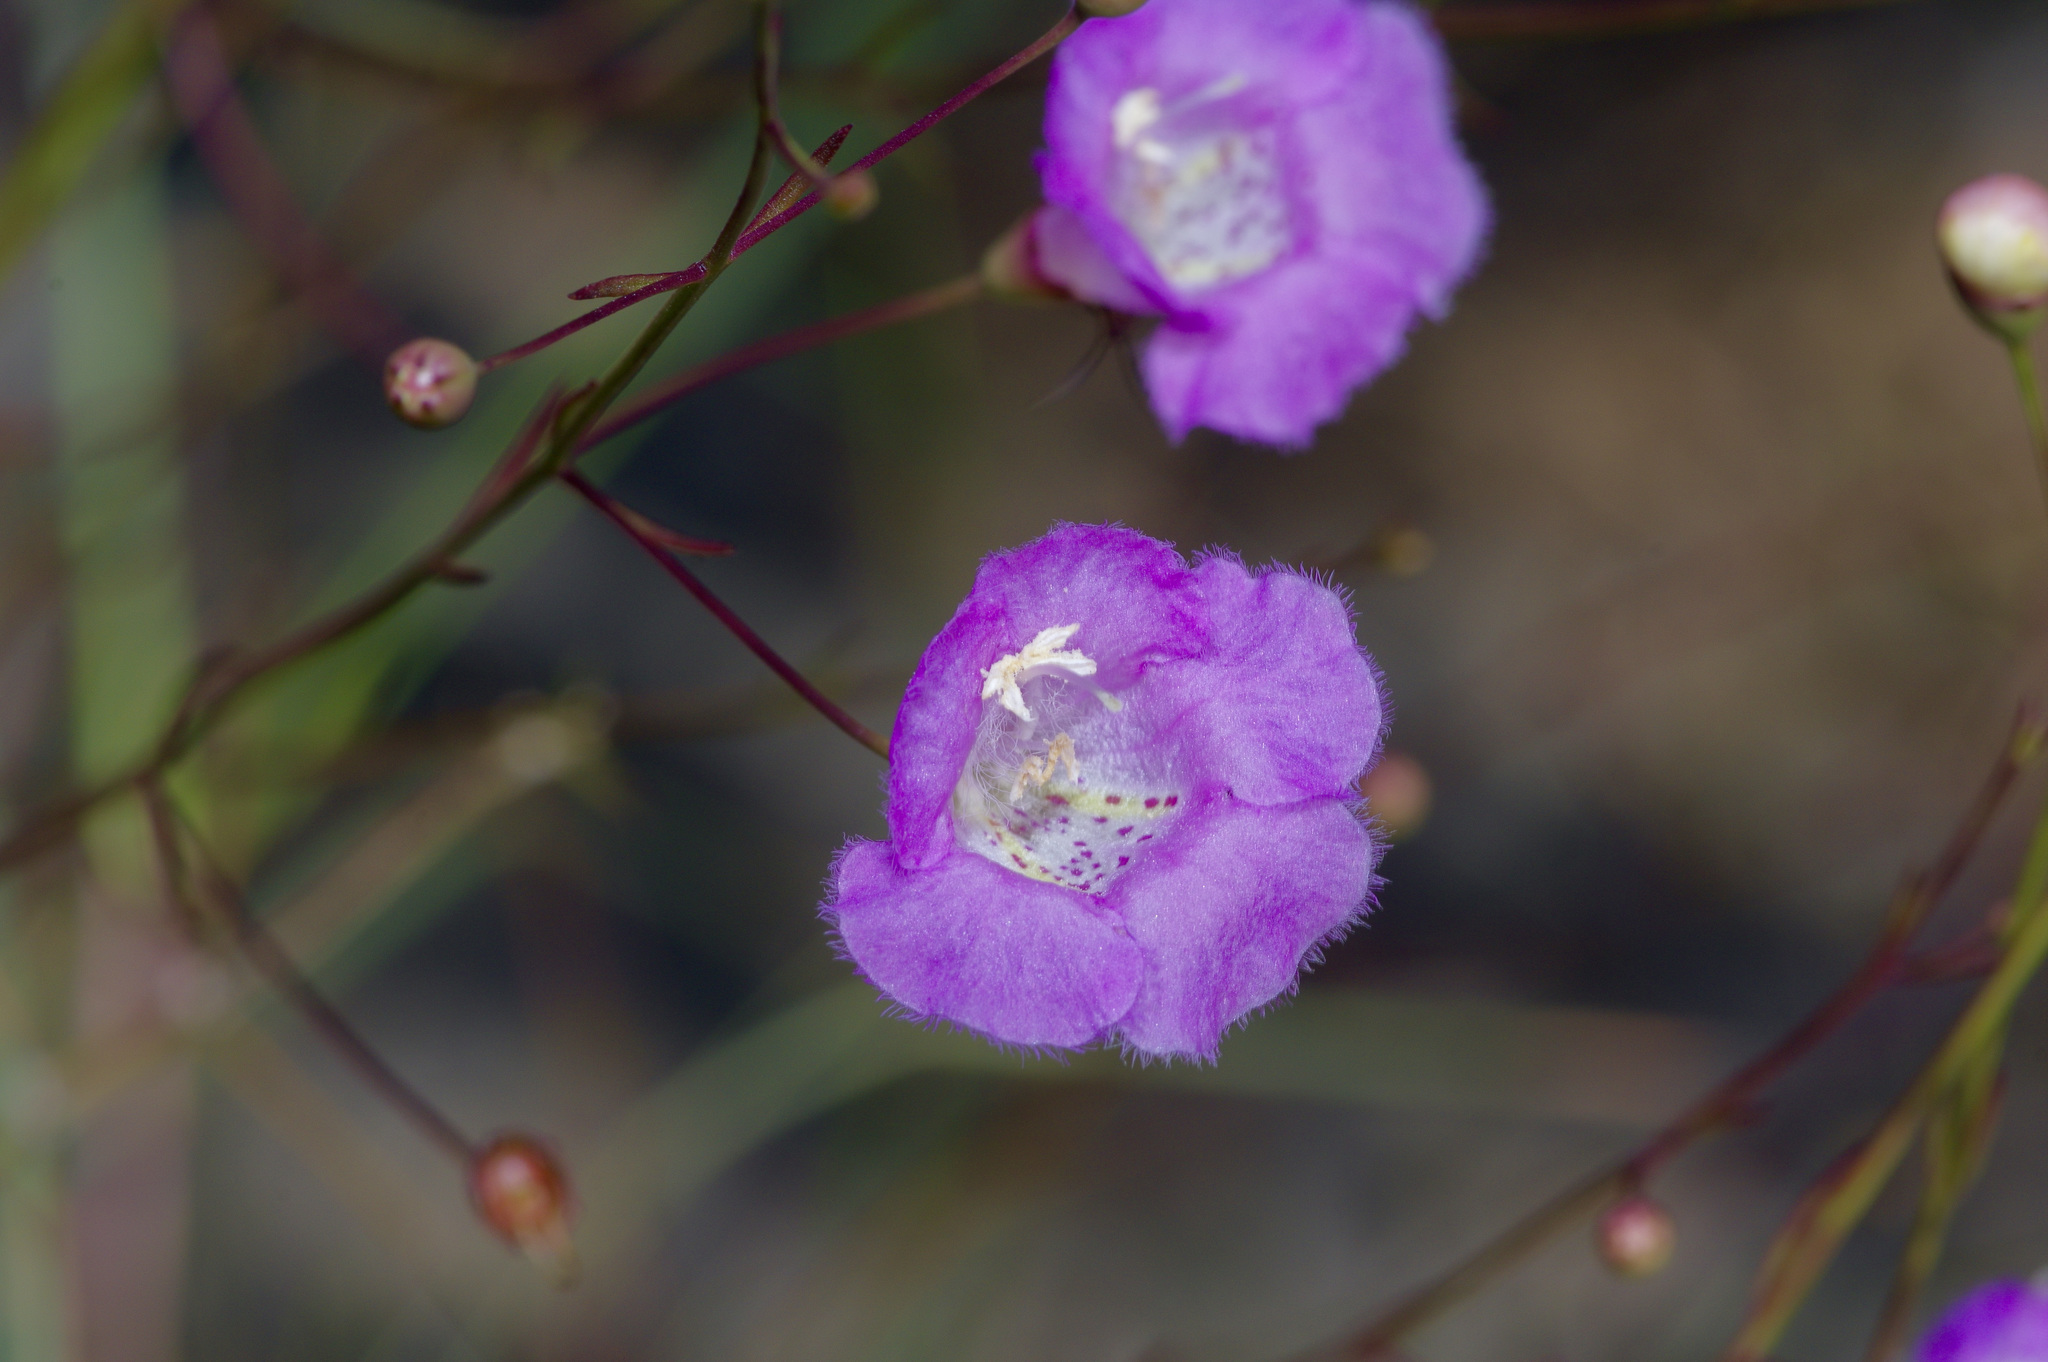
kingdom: Plantae
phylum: Tracheophyta
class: Magnoliopsida
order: Lamiales
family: Orobanchaceae
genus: Agalinis
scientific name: Agalinis edwardsiana
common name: Plateau-gerardia
